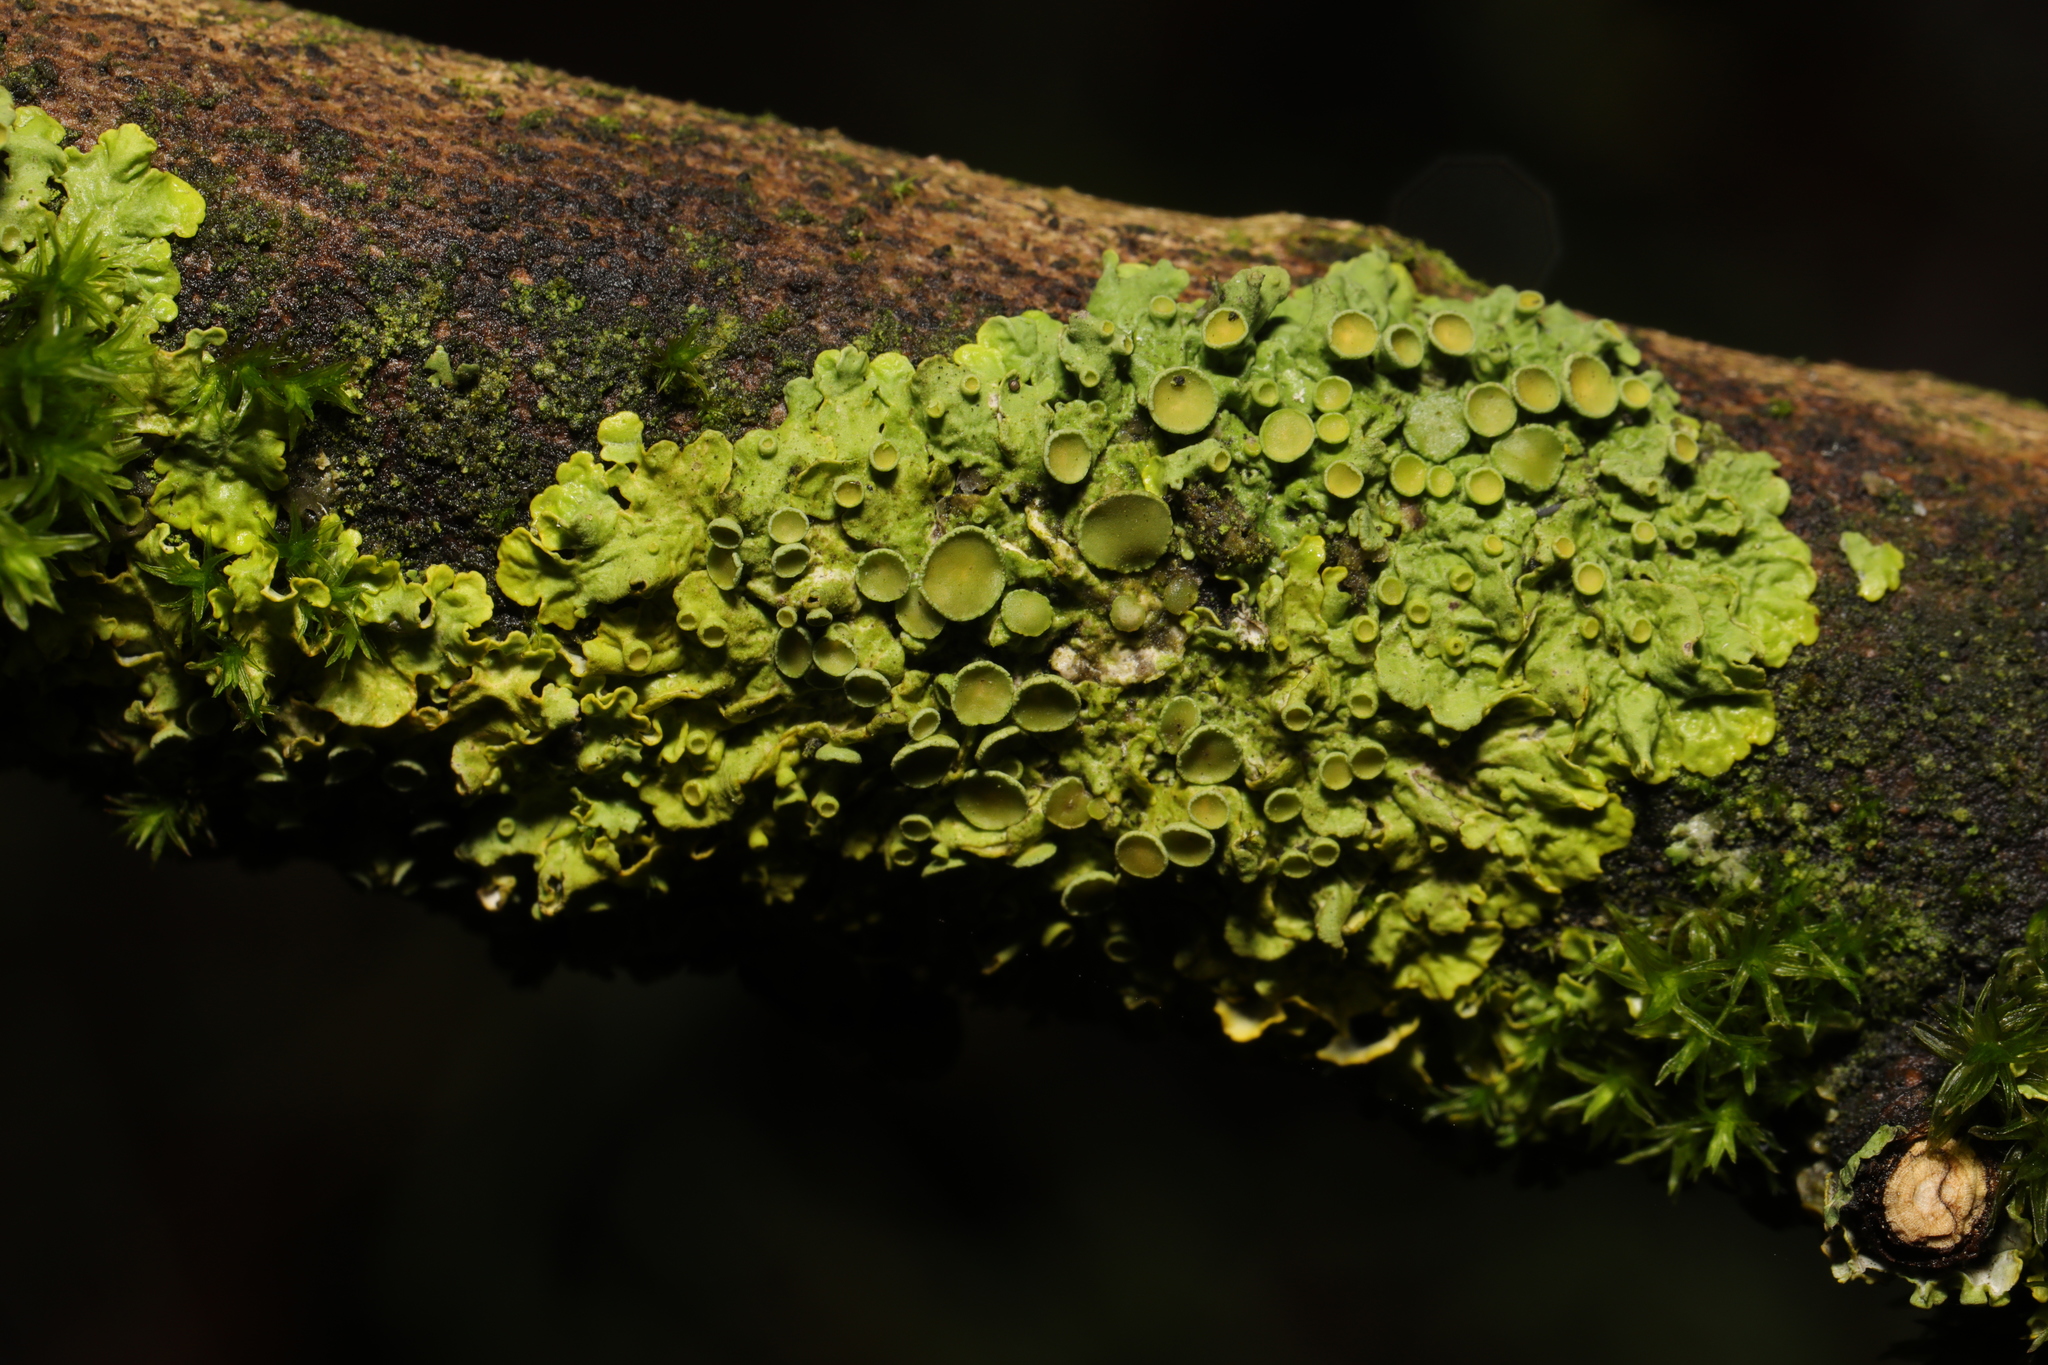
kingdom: Fungi
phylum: Ascomycota
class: Lecanoromycetes
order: Teloschistales
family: Teloschistaceae
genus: Xanthoria
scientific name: Xanthoria parietina
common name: Common orange lichen
